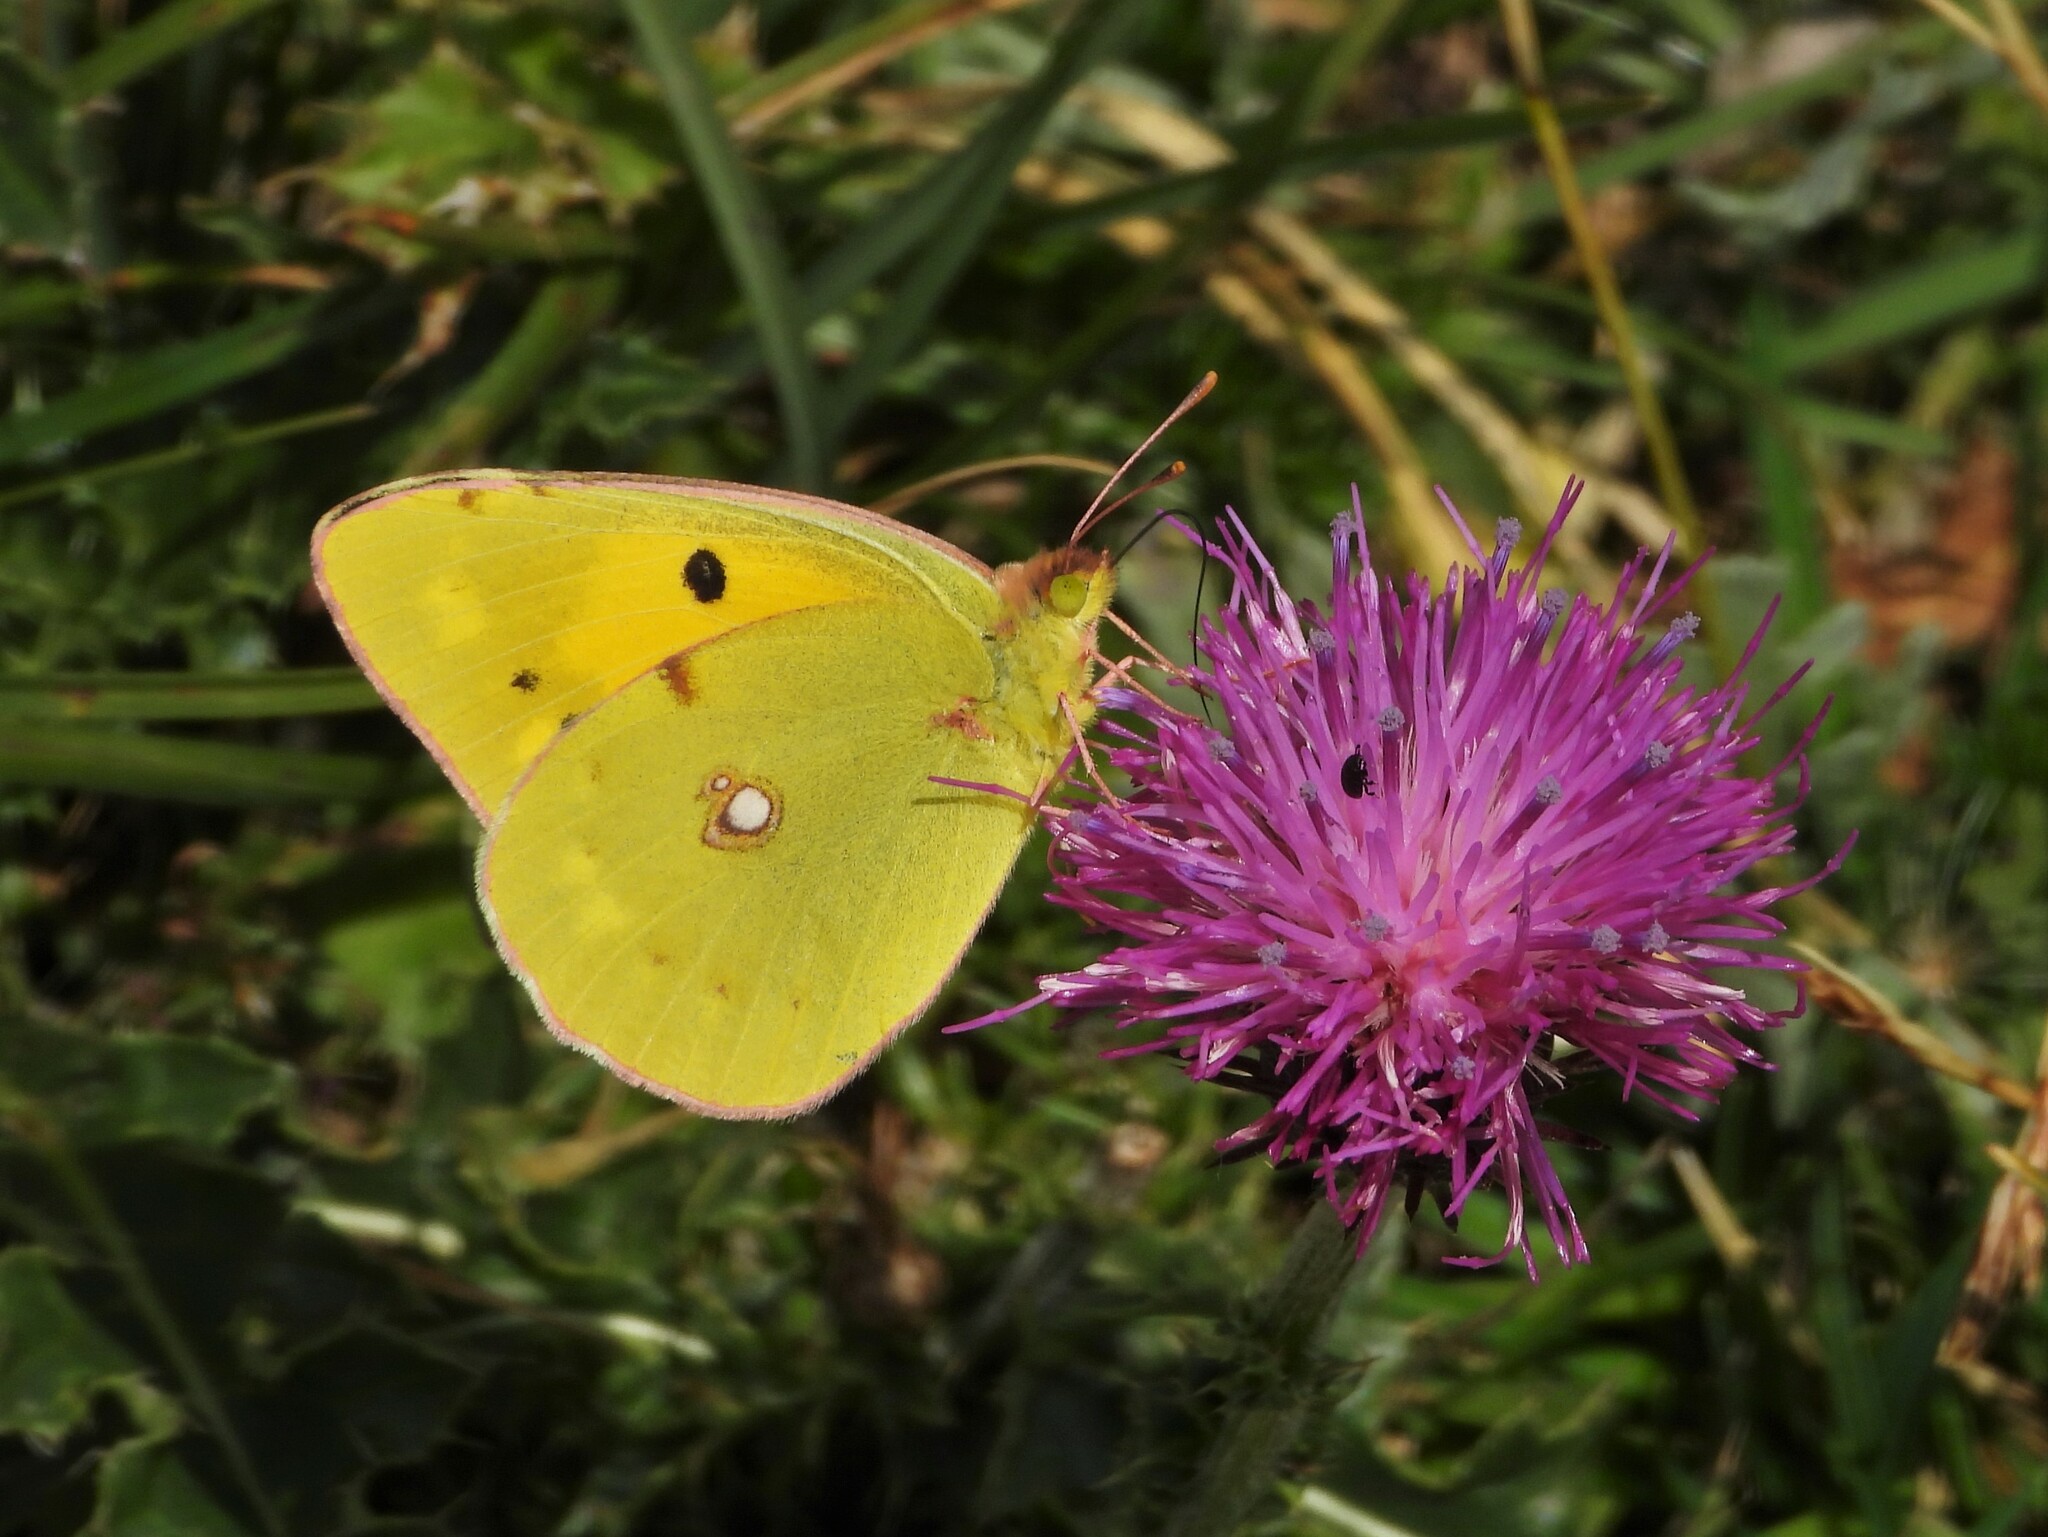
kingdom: Animalia
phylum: Arthropoda
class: Insecta
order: Lepidoptera
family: Pieridae
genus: Colias
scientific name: Colias croceus
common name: Clouded yellow
